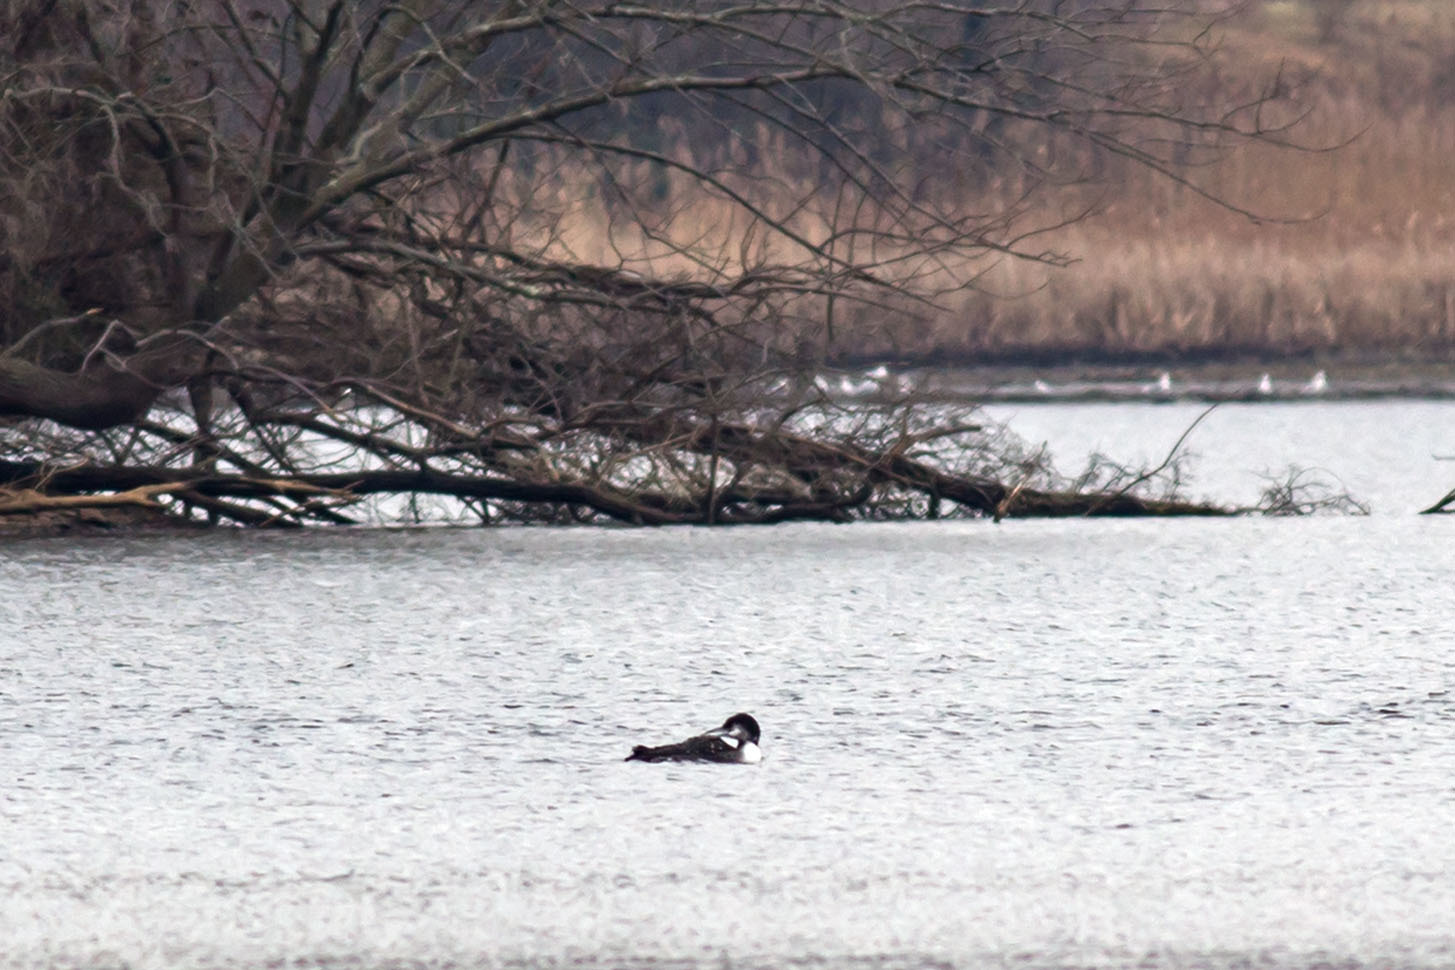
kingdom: Animalia
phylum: Chordata
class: Aves
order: Gaviiformes
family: Gaviidae
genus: Gavia
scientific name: Gavia immer
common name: Common loon
